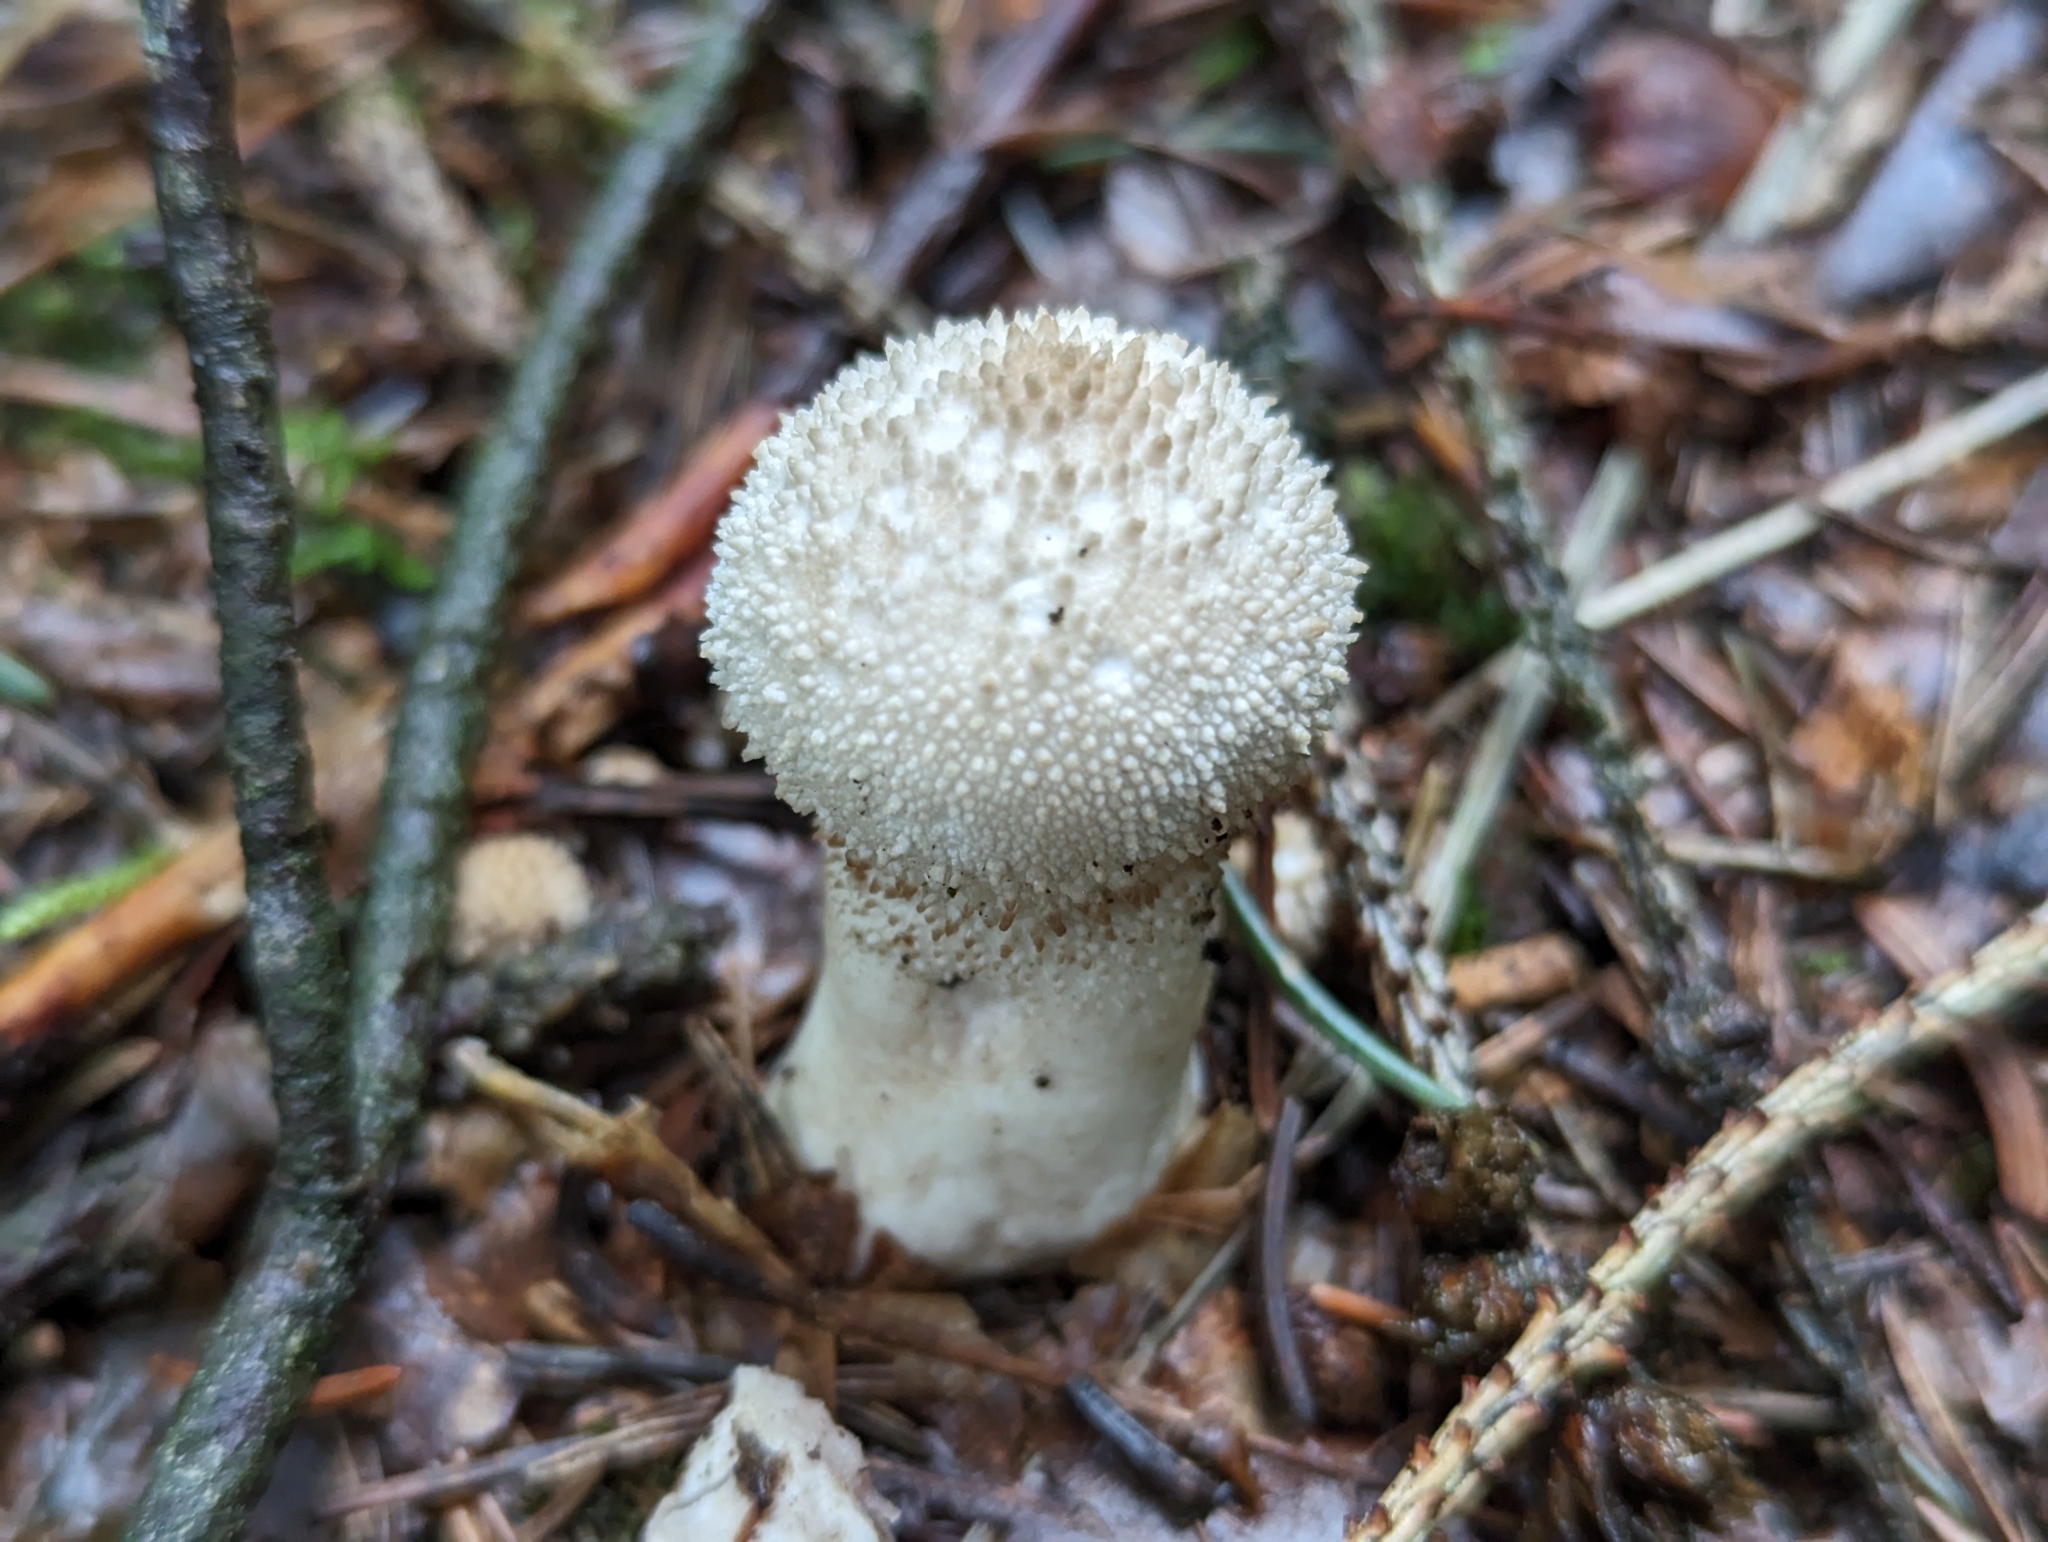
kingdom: Fungi
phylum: Basidiomycota
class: Agaricomycetes
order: Agaricales
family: Lycoperdaceae
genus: Lycoperdon
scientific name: Lycoperdon perlatum
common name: Common puffball
